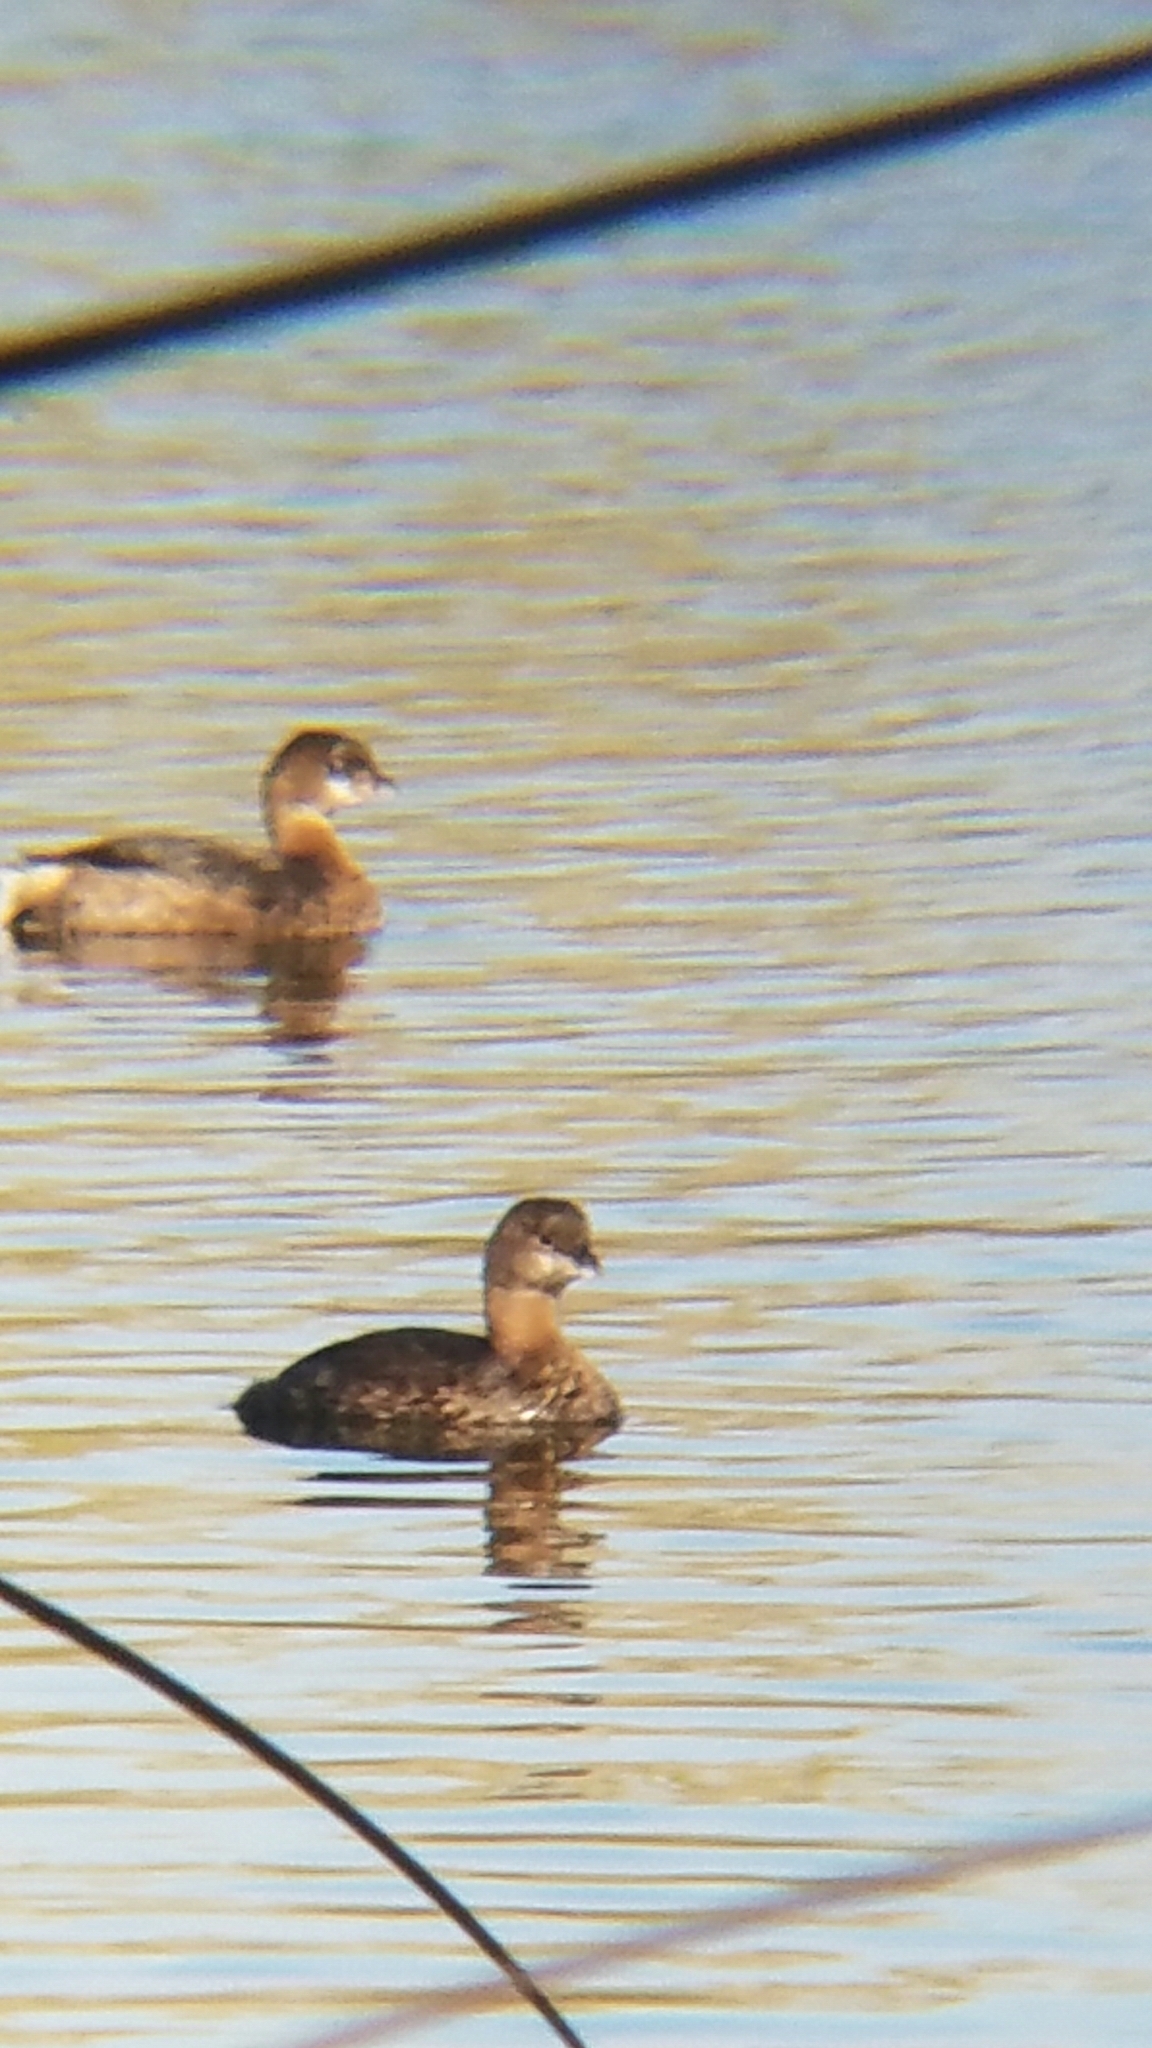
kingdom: Animalia
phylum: Chordata
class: Aves
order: Podicipediformes
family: Podicipedidae
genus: Podilymbus
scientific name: Podilymbus podiceps
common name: Pied-billed grebe
